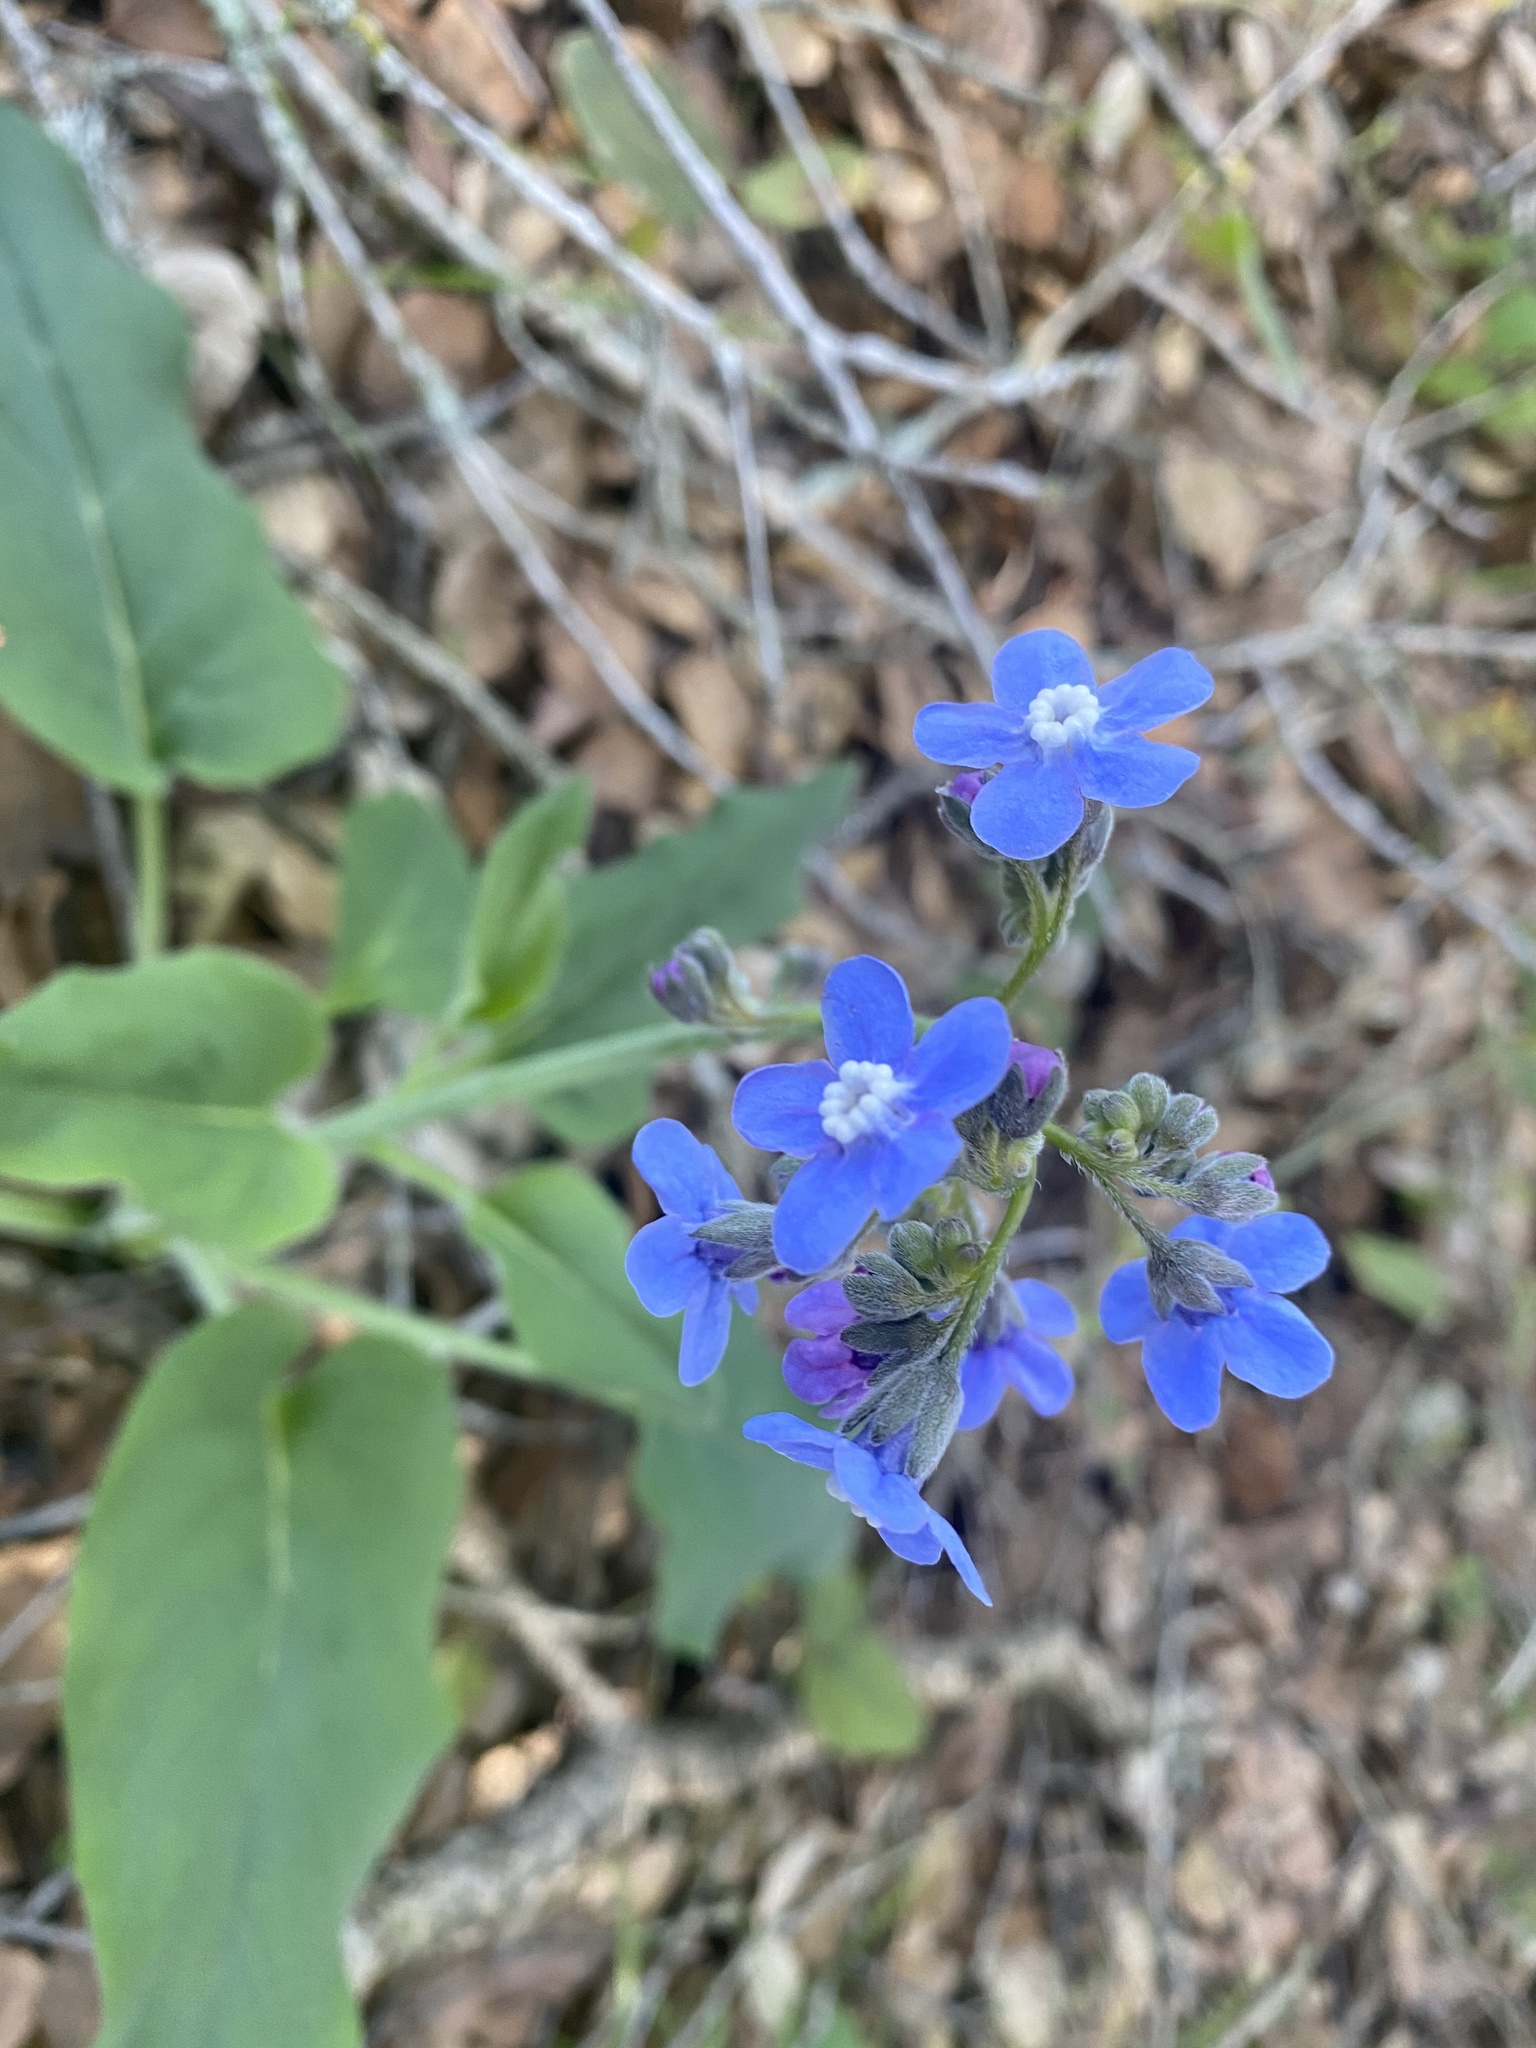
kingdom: Plantae
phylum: Tracheophyta
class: Magnoliopsida
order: Boraginales
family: Boraginaceae
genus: Adelinia
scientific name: Adelinia grande
